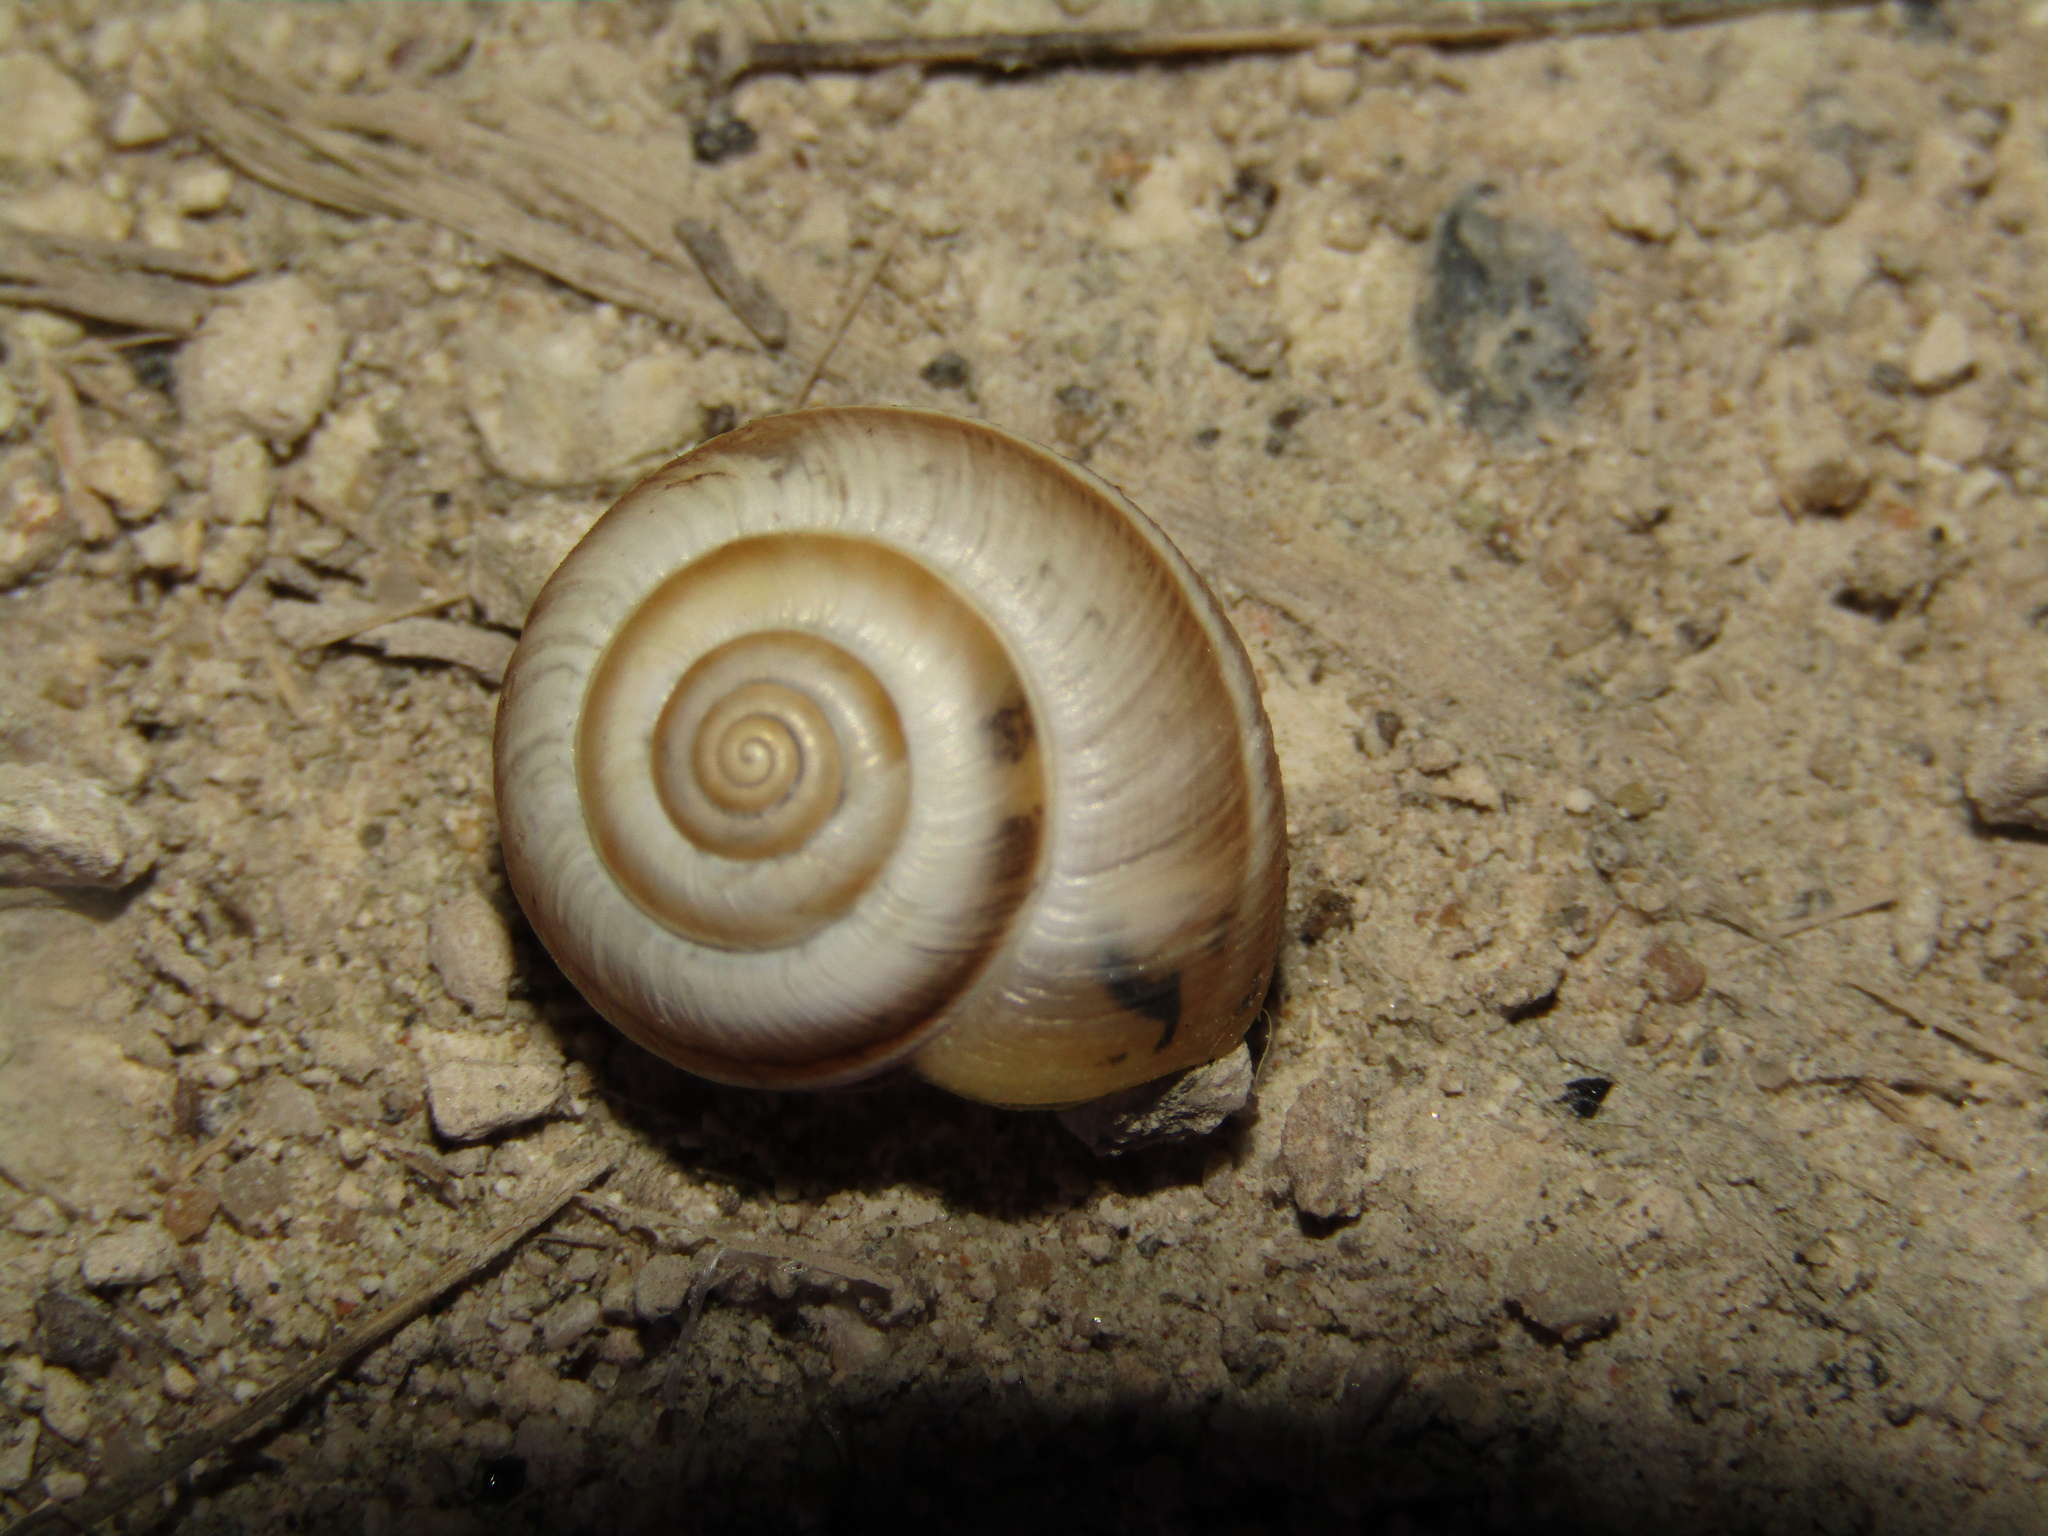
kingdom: Animalia
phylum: Mollusca
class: Gastropoda
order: Stylommatophora
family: Hygromiidae
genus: Harmozica
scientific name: Harmozica ravergiensis
